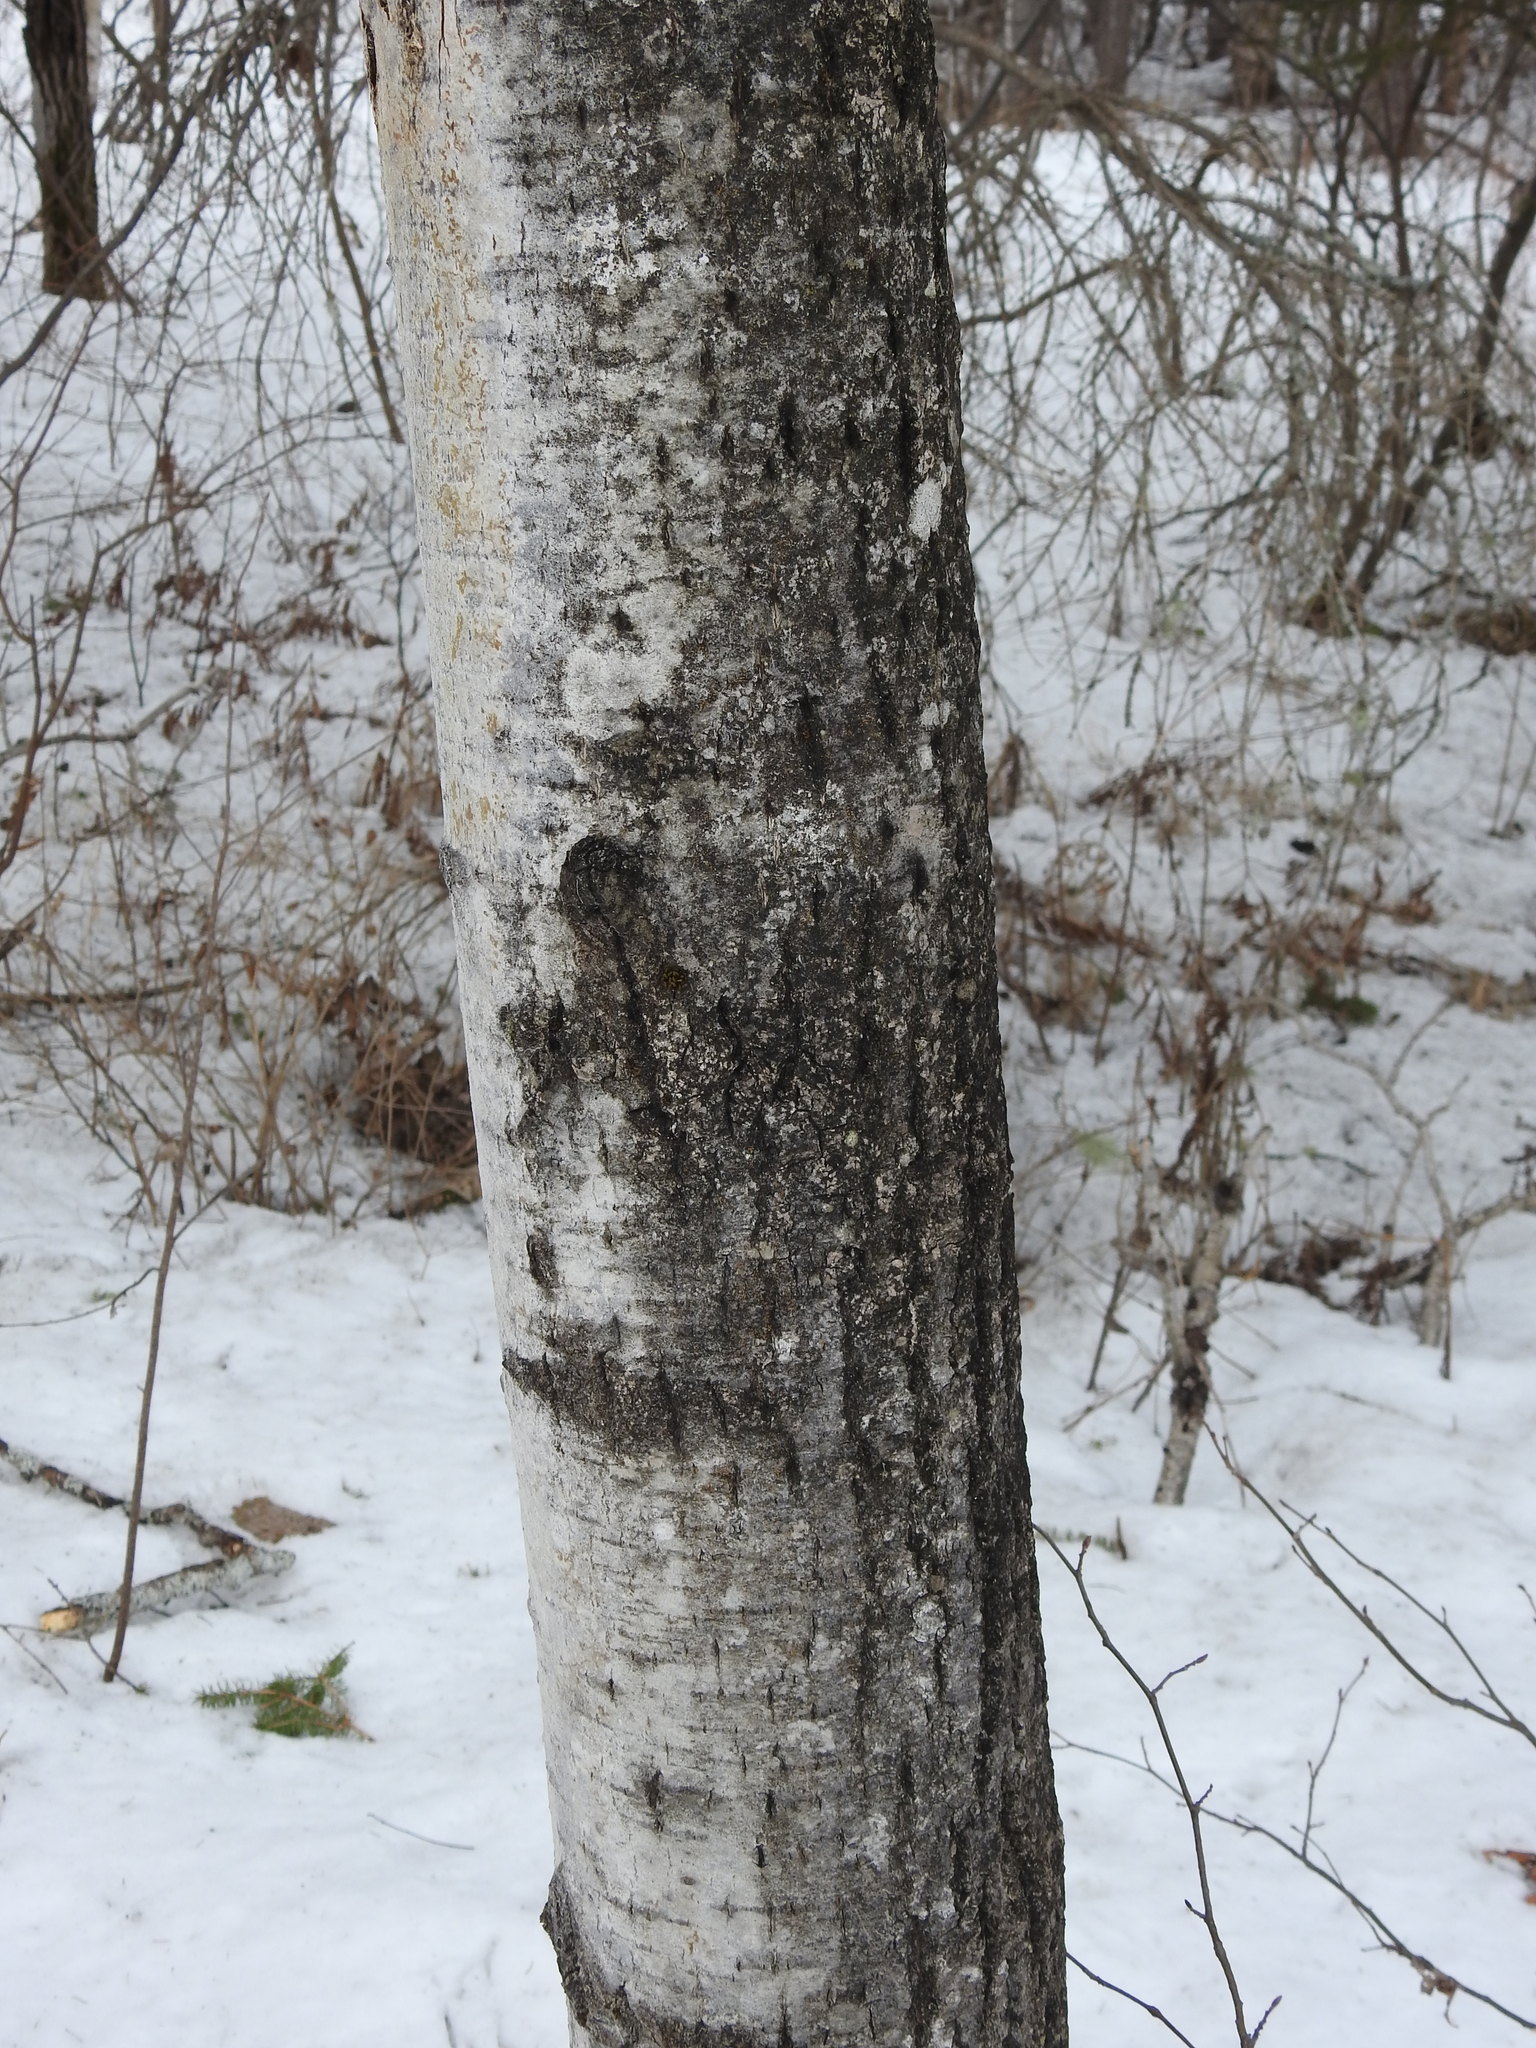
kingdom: Plantae
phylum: Tracheophyta
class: Magnoliopsida
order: Malpighiales
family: Salicaceae
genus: Populus
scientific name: Populus tremuloides
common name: Quaking aspen
